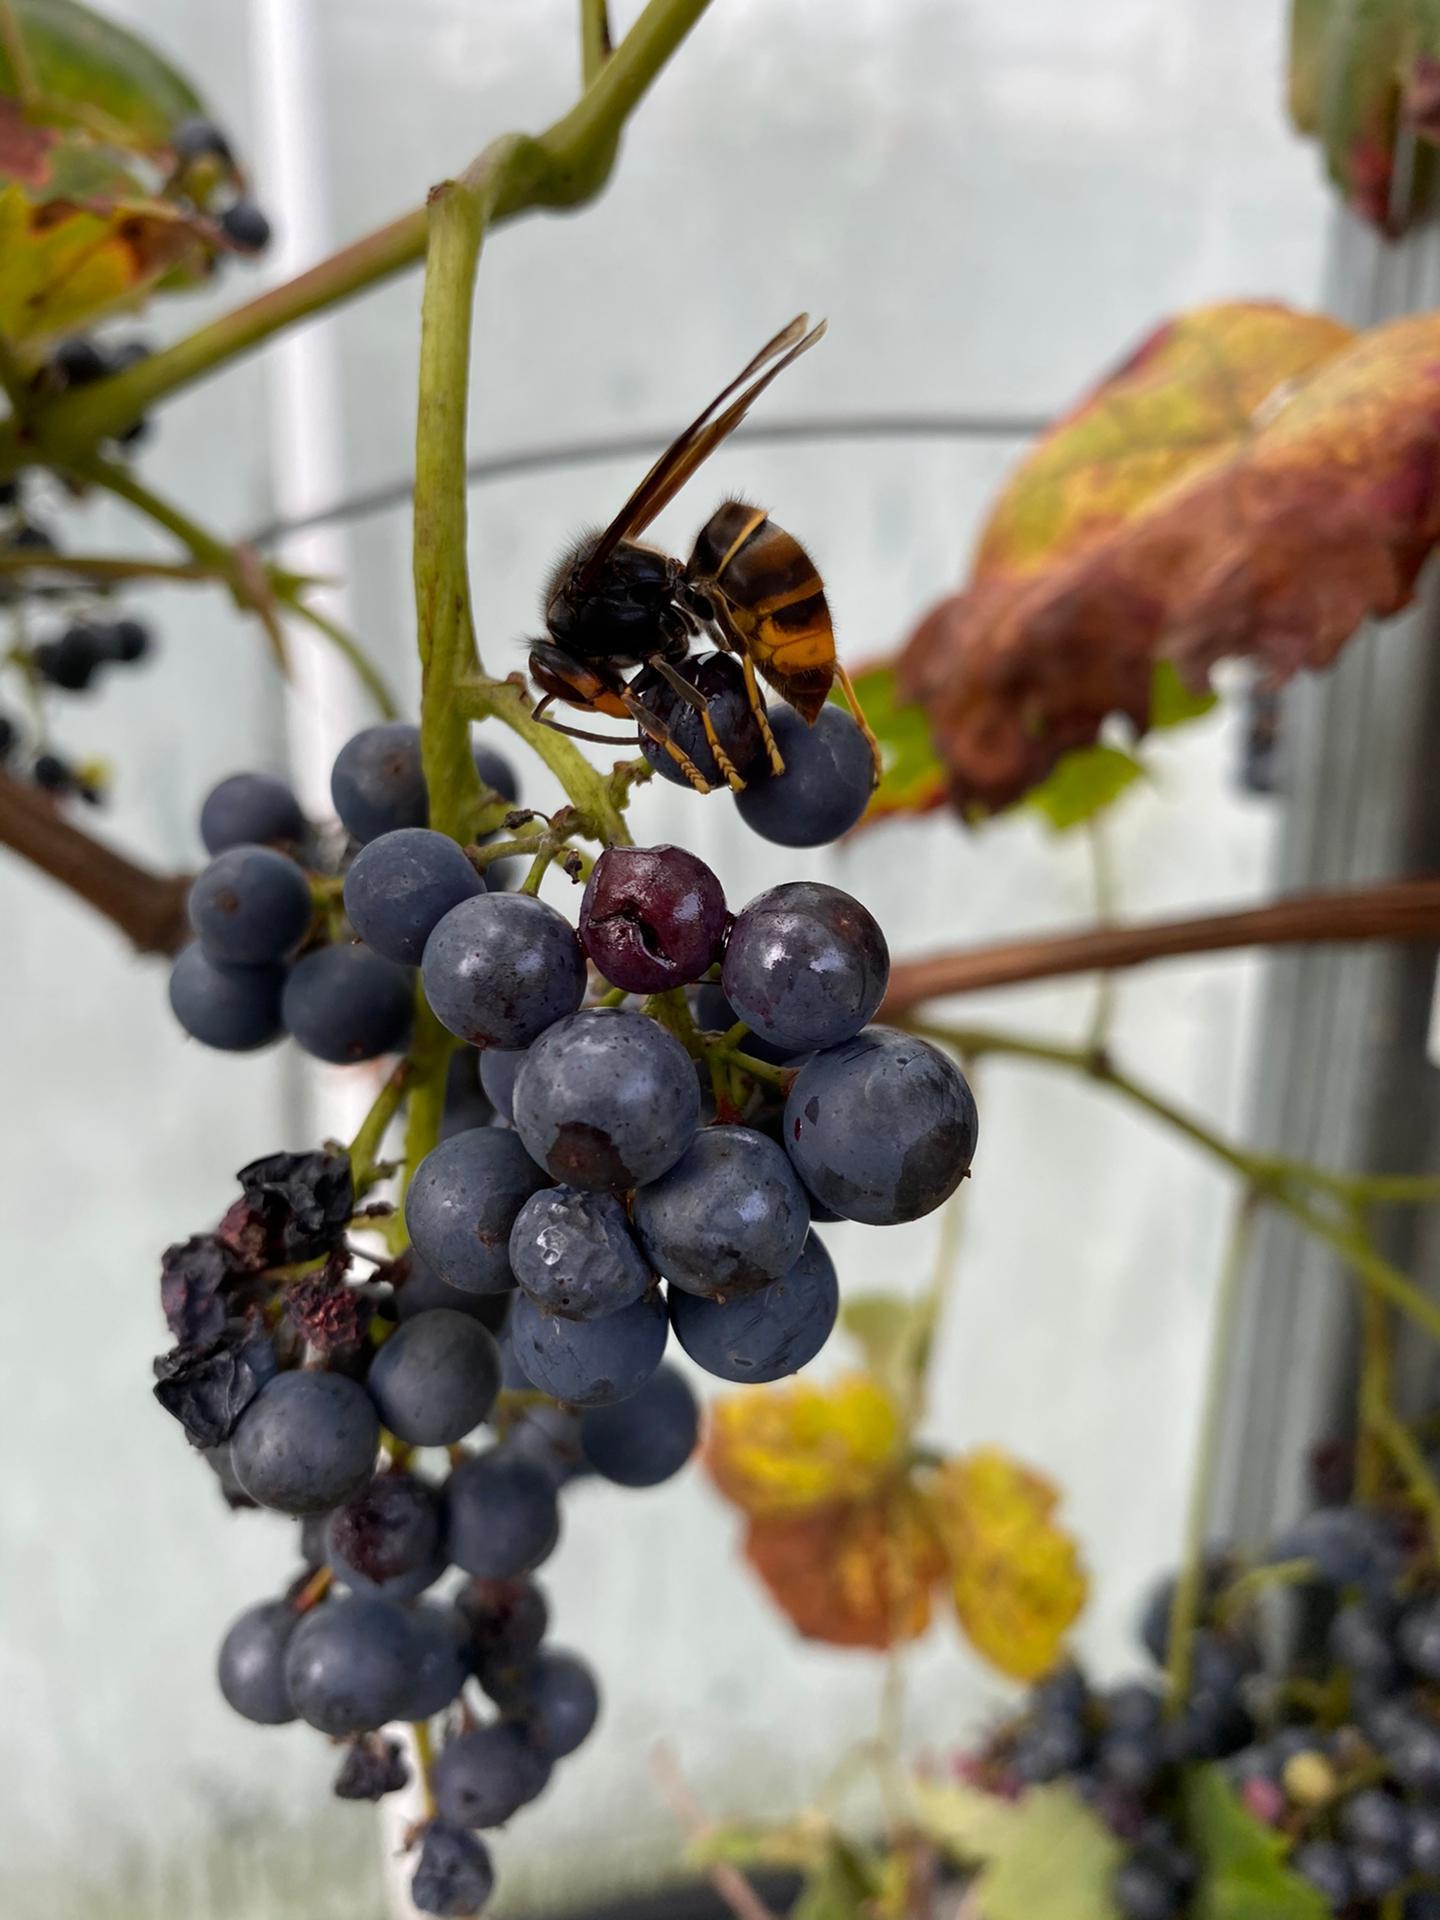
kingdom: Animalia
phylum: Arthropoda
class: Insecta
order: Hymenoptera
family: Vespidae
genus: Vespa
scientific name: Vespa velutina
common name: Asian hornet
